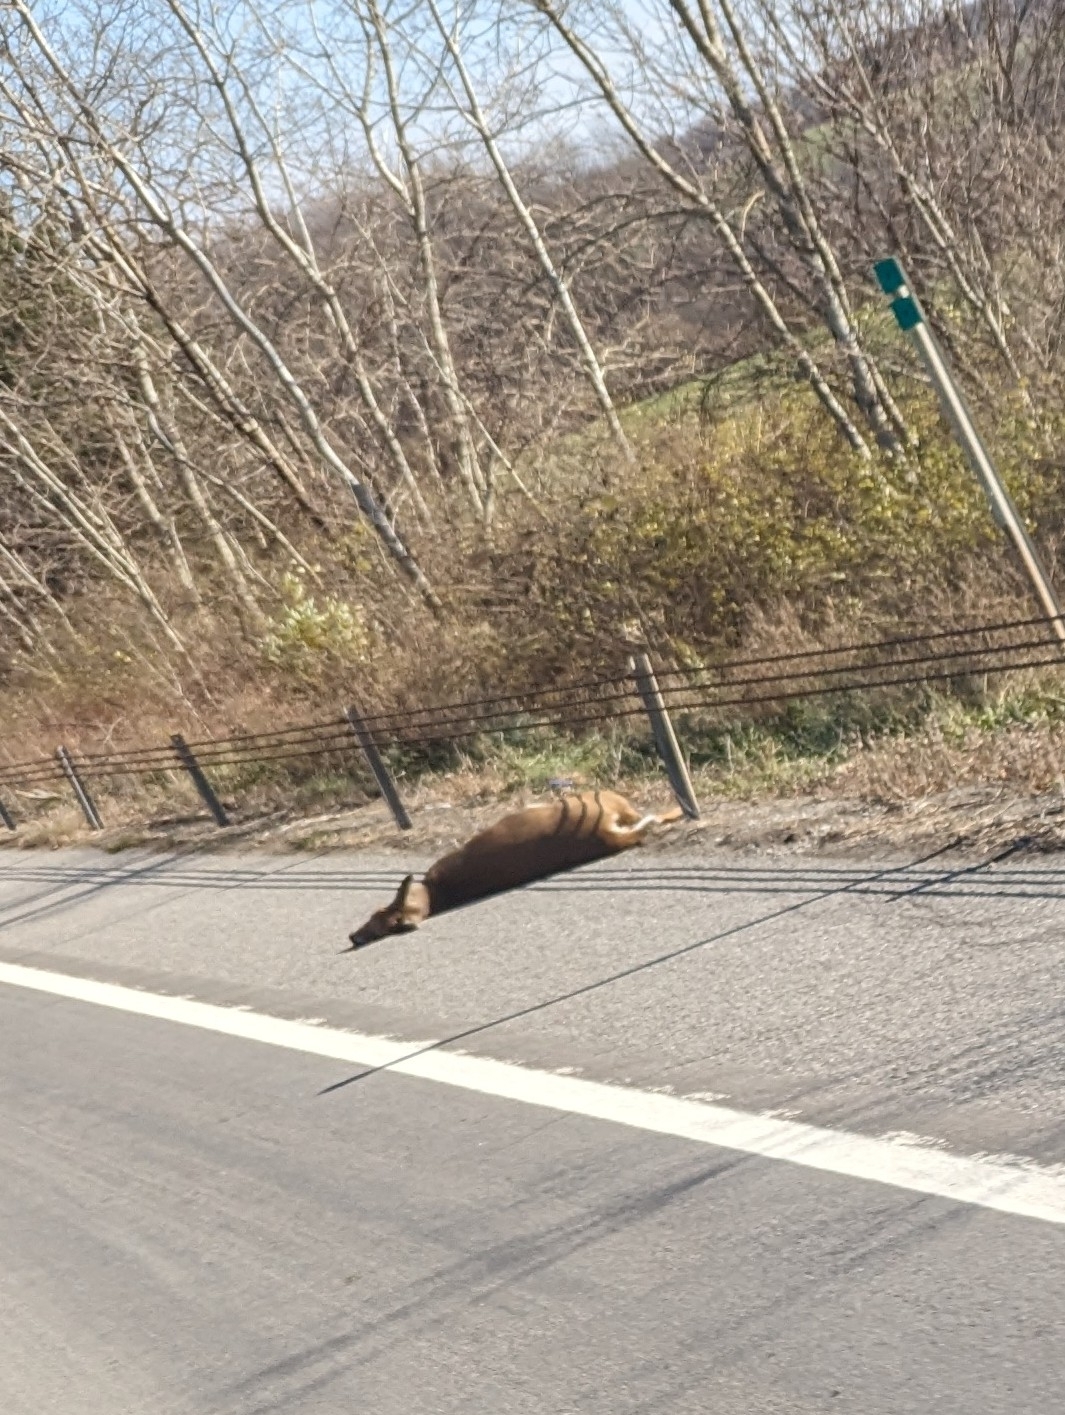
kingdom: Animalia
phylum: Chordata
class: Mammalia
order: Artiodactyla
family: Cervidae
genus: Odocoileus
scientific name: Odocoileus virginianus
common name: White-tailed deer
